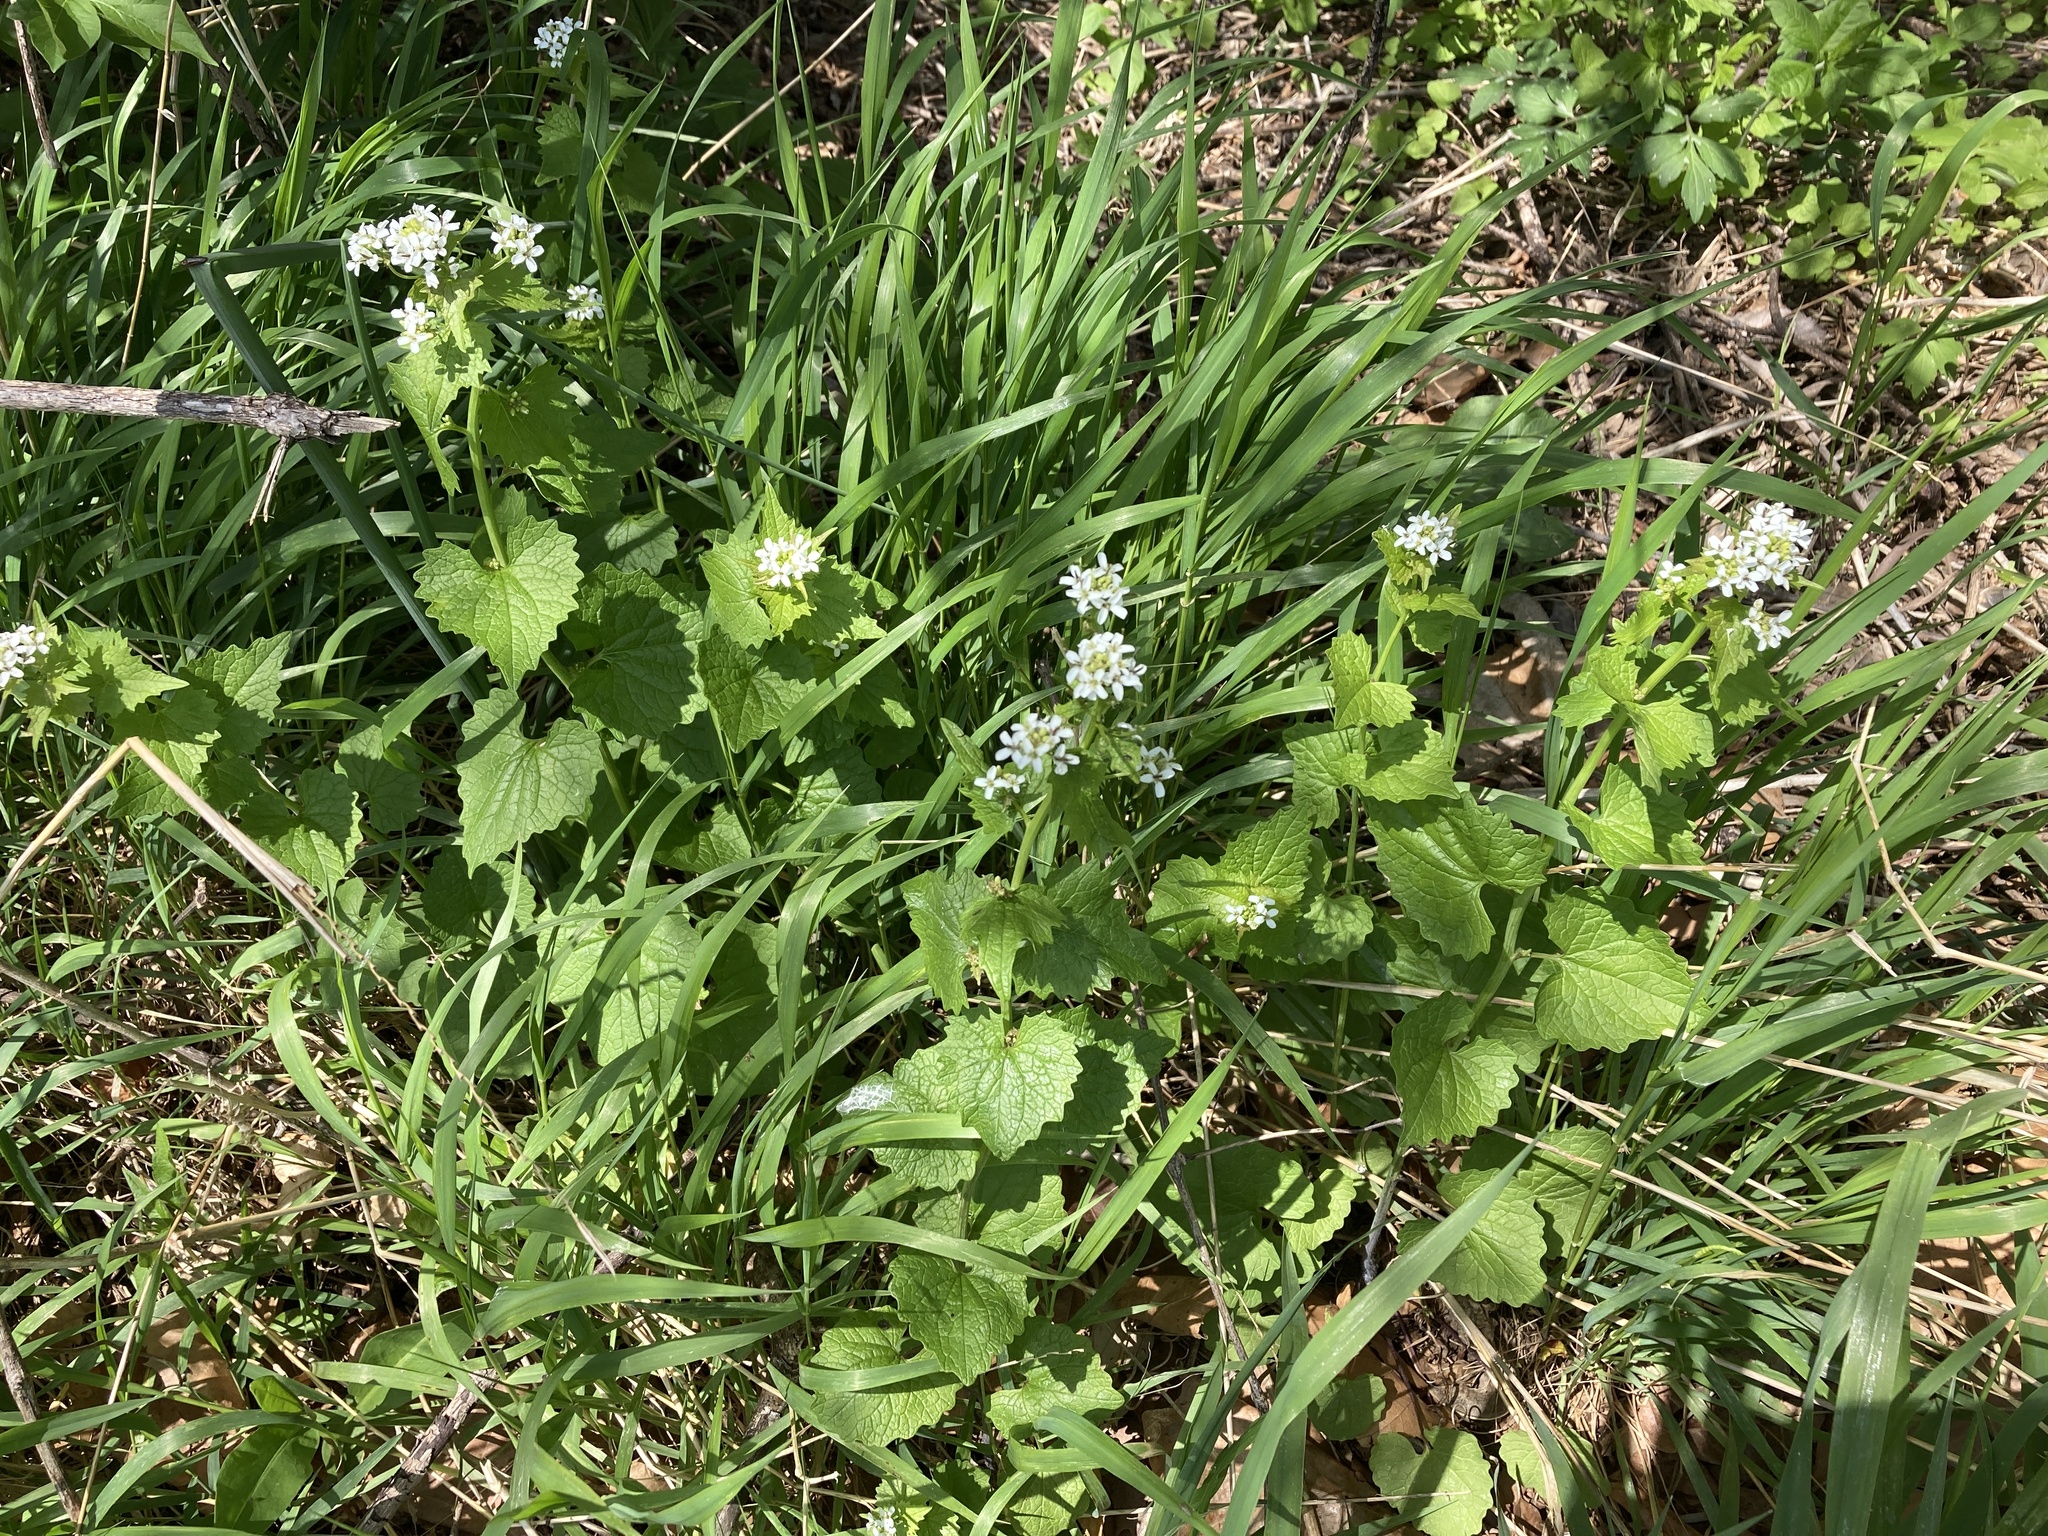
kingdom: Plantae
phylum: Tracheophyta
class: Magnoliopsida
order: Brassicales
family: Brassicaceae
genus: Alliaria
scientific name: Alliaria petiolata
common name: Garlic mustard
